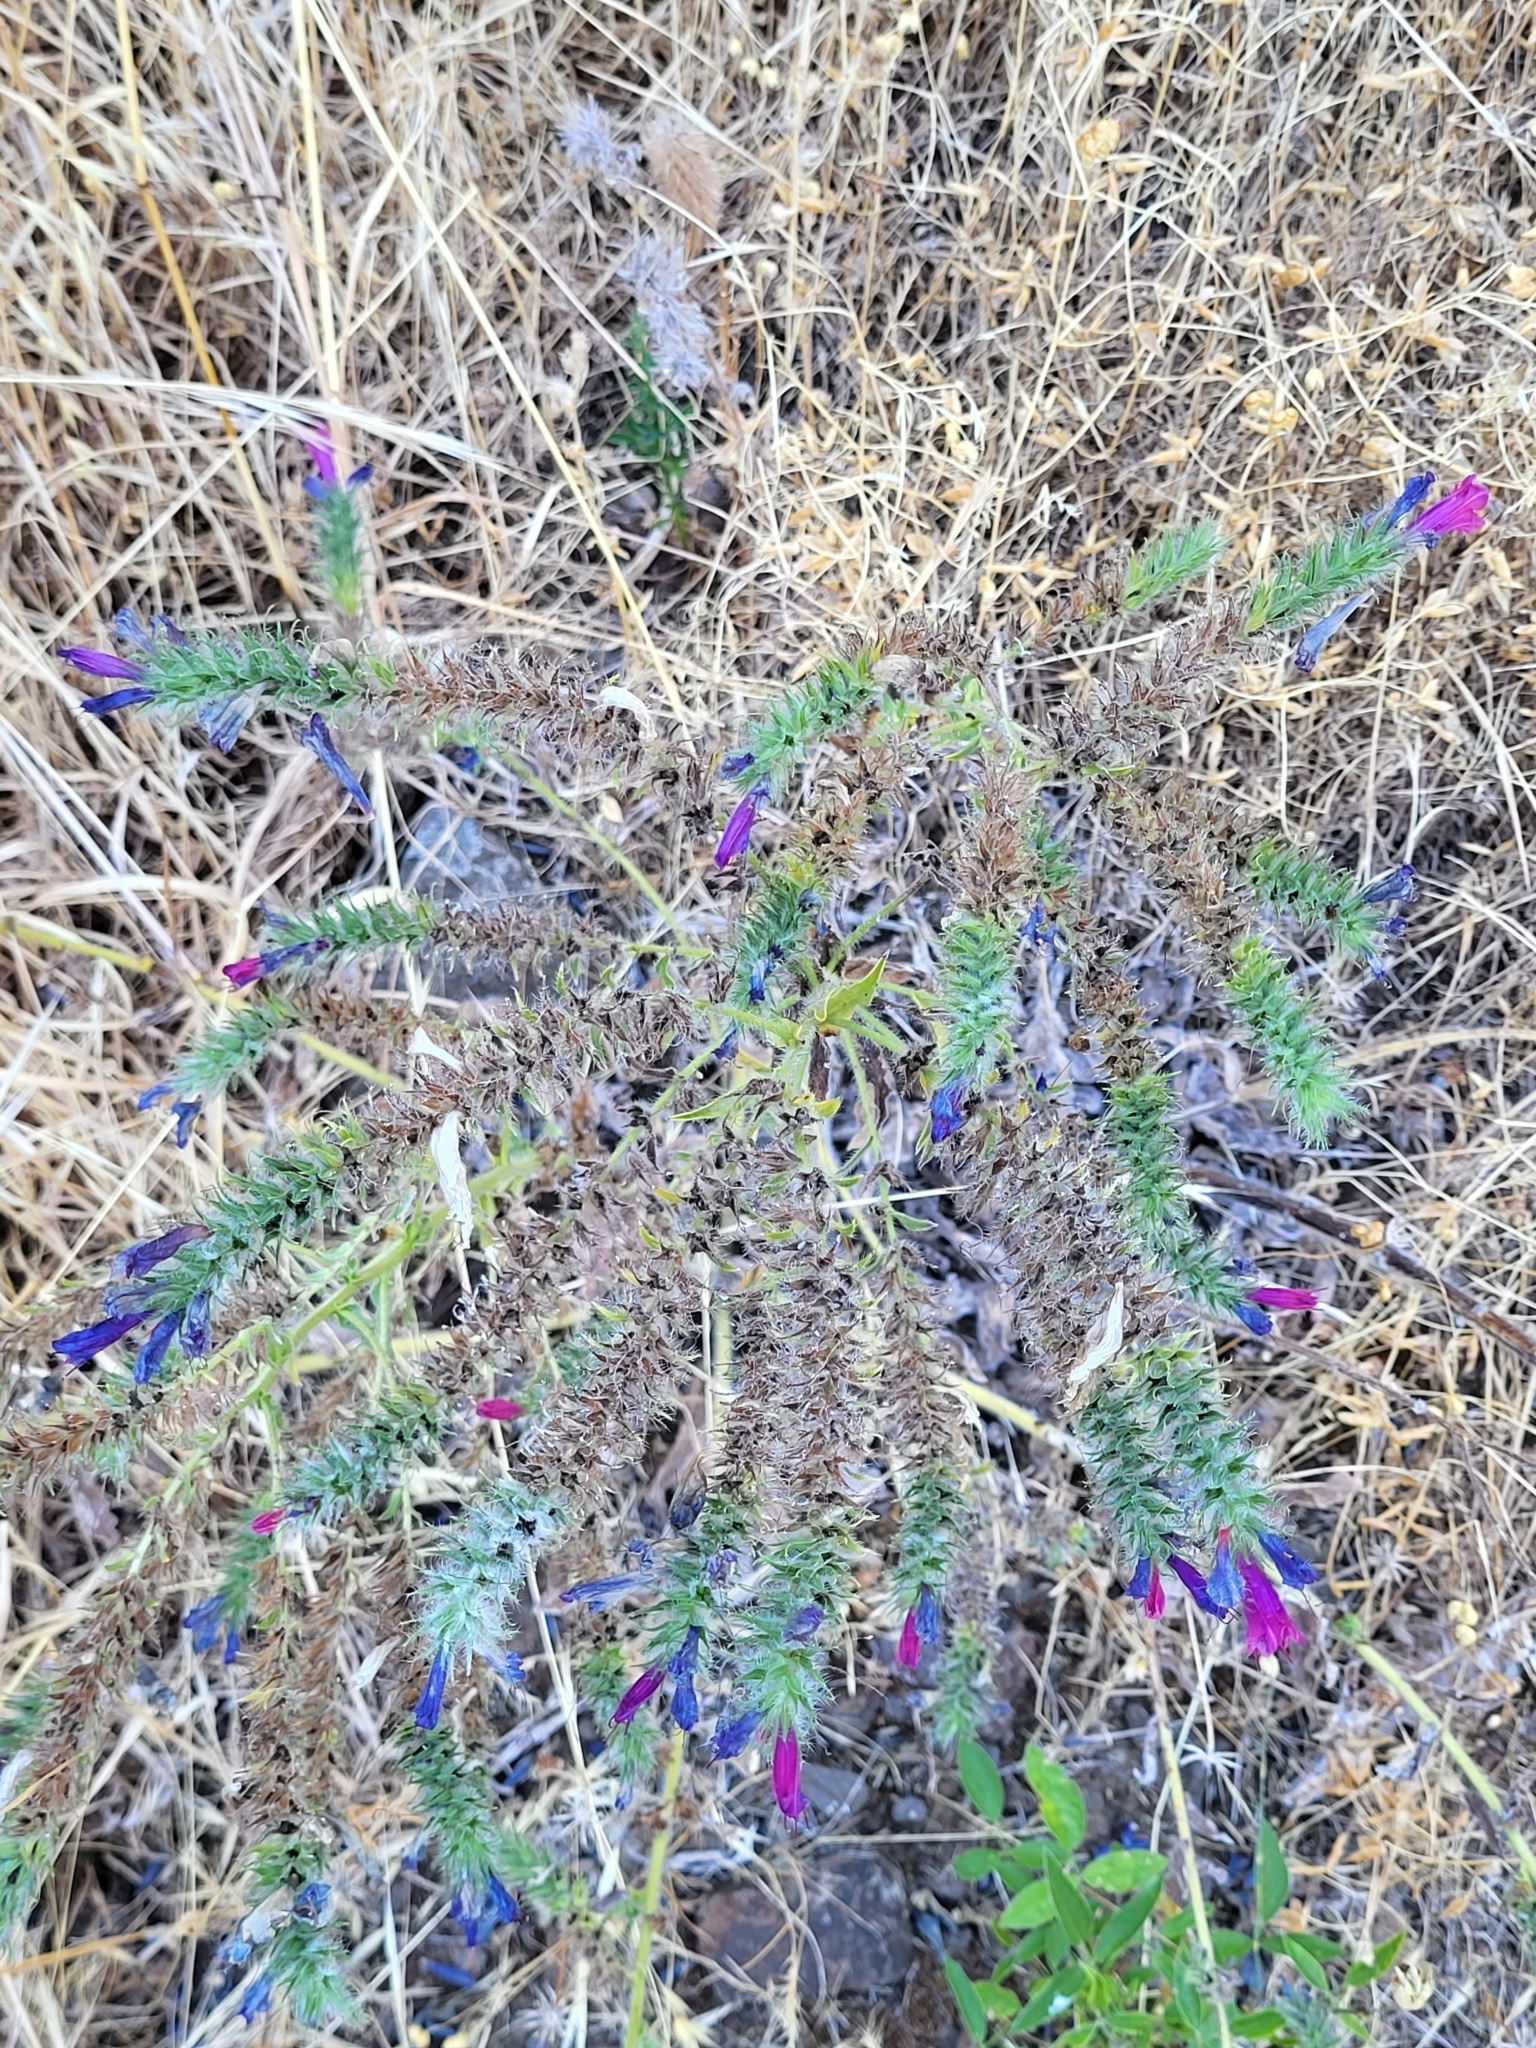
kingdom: Plantae
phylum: Tracheophyta
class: Magnoliopsida
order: Boraginales
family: Boraginaceae
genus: Echium
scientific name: Echium plantagineum
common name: Purple viper's-bugloss
